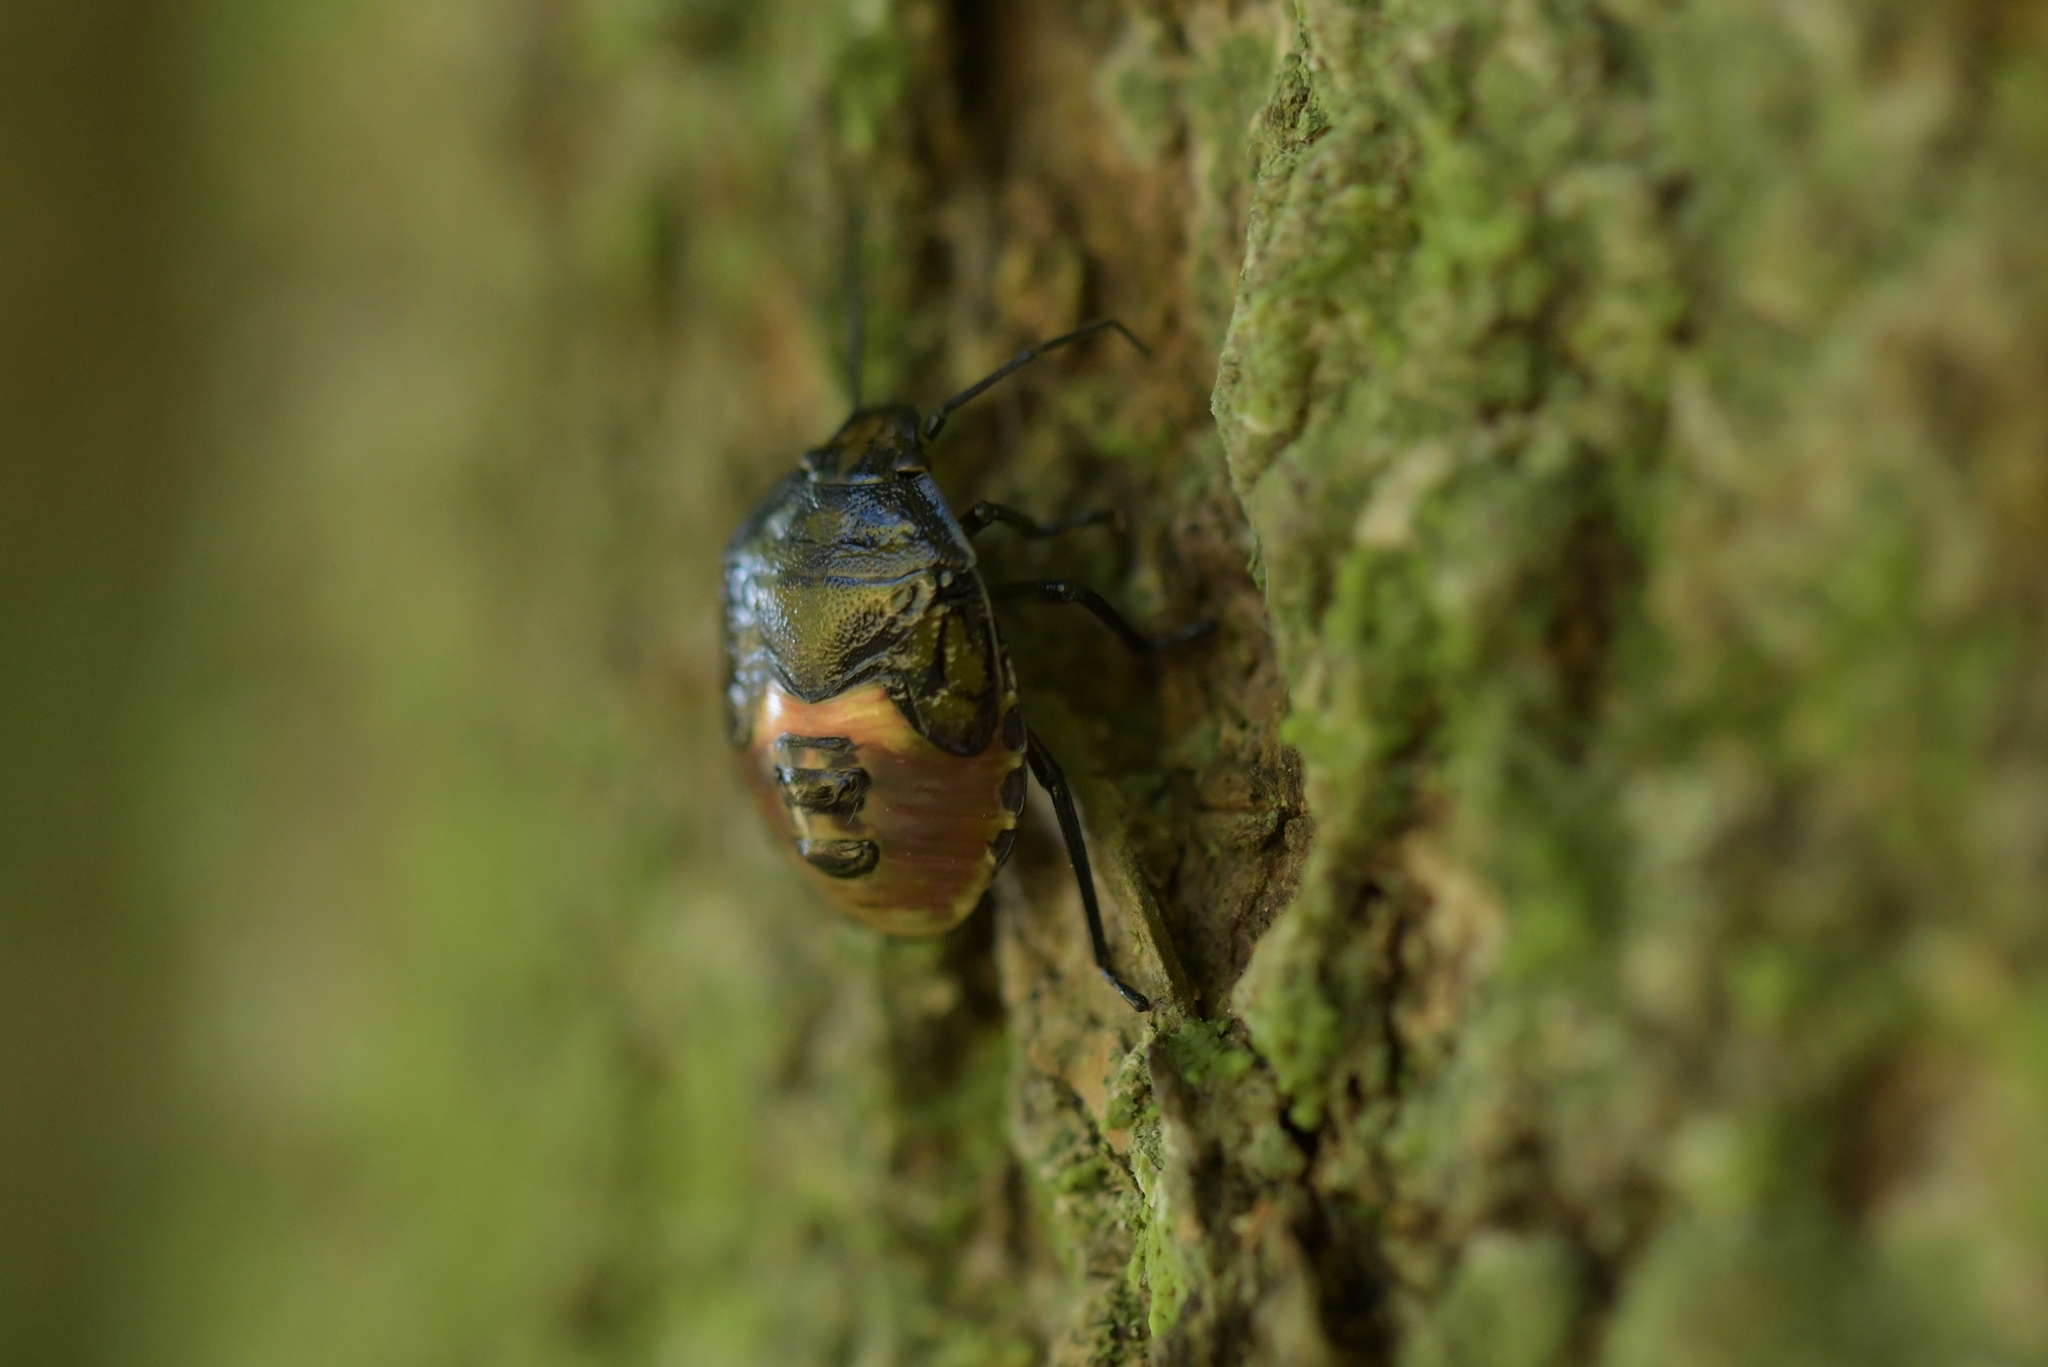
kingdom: Animalia
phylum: Arthropoda
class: Insecta
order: Hemiptera
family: Pentatomidae
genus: Glaucias
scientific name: Glaucias amyota
